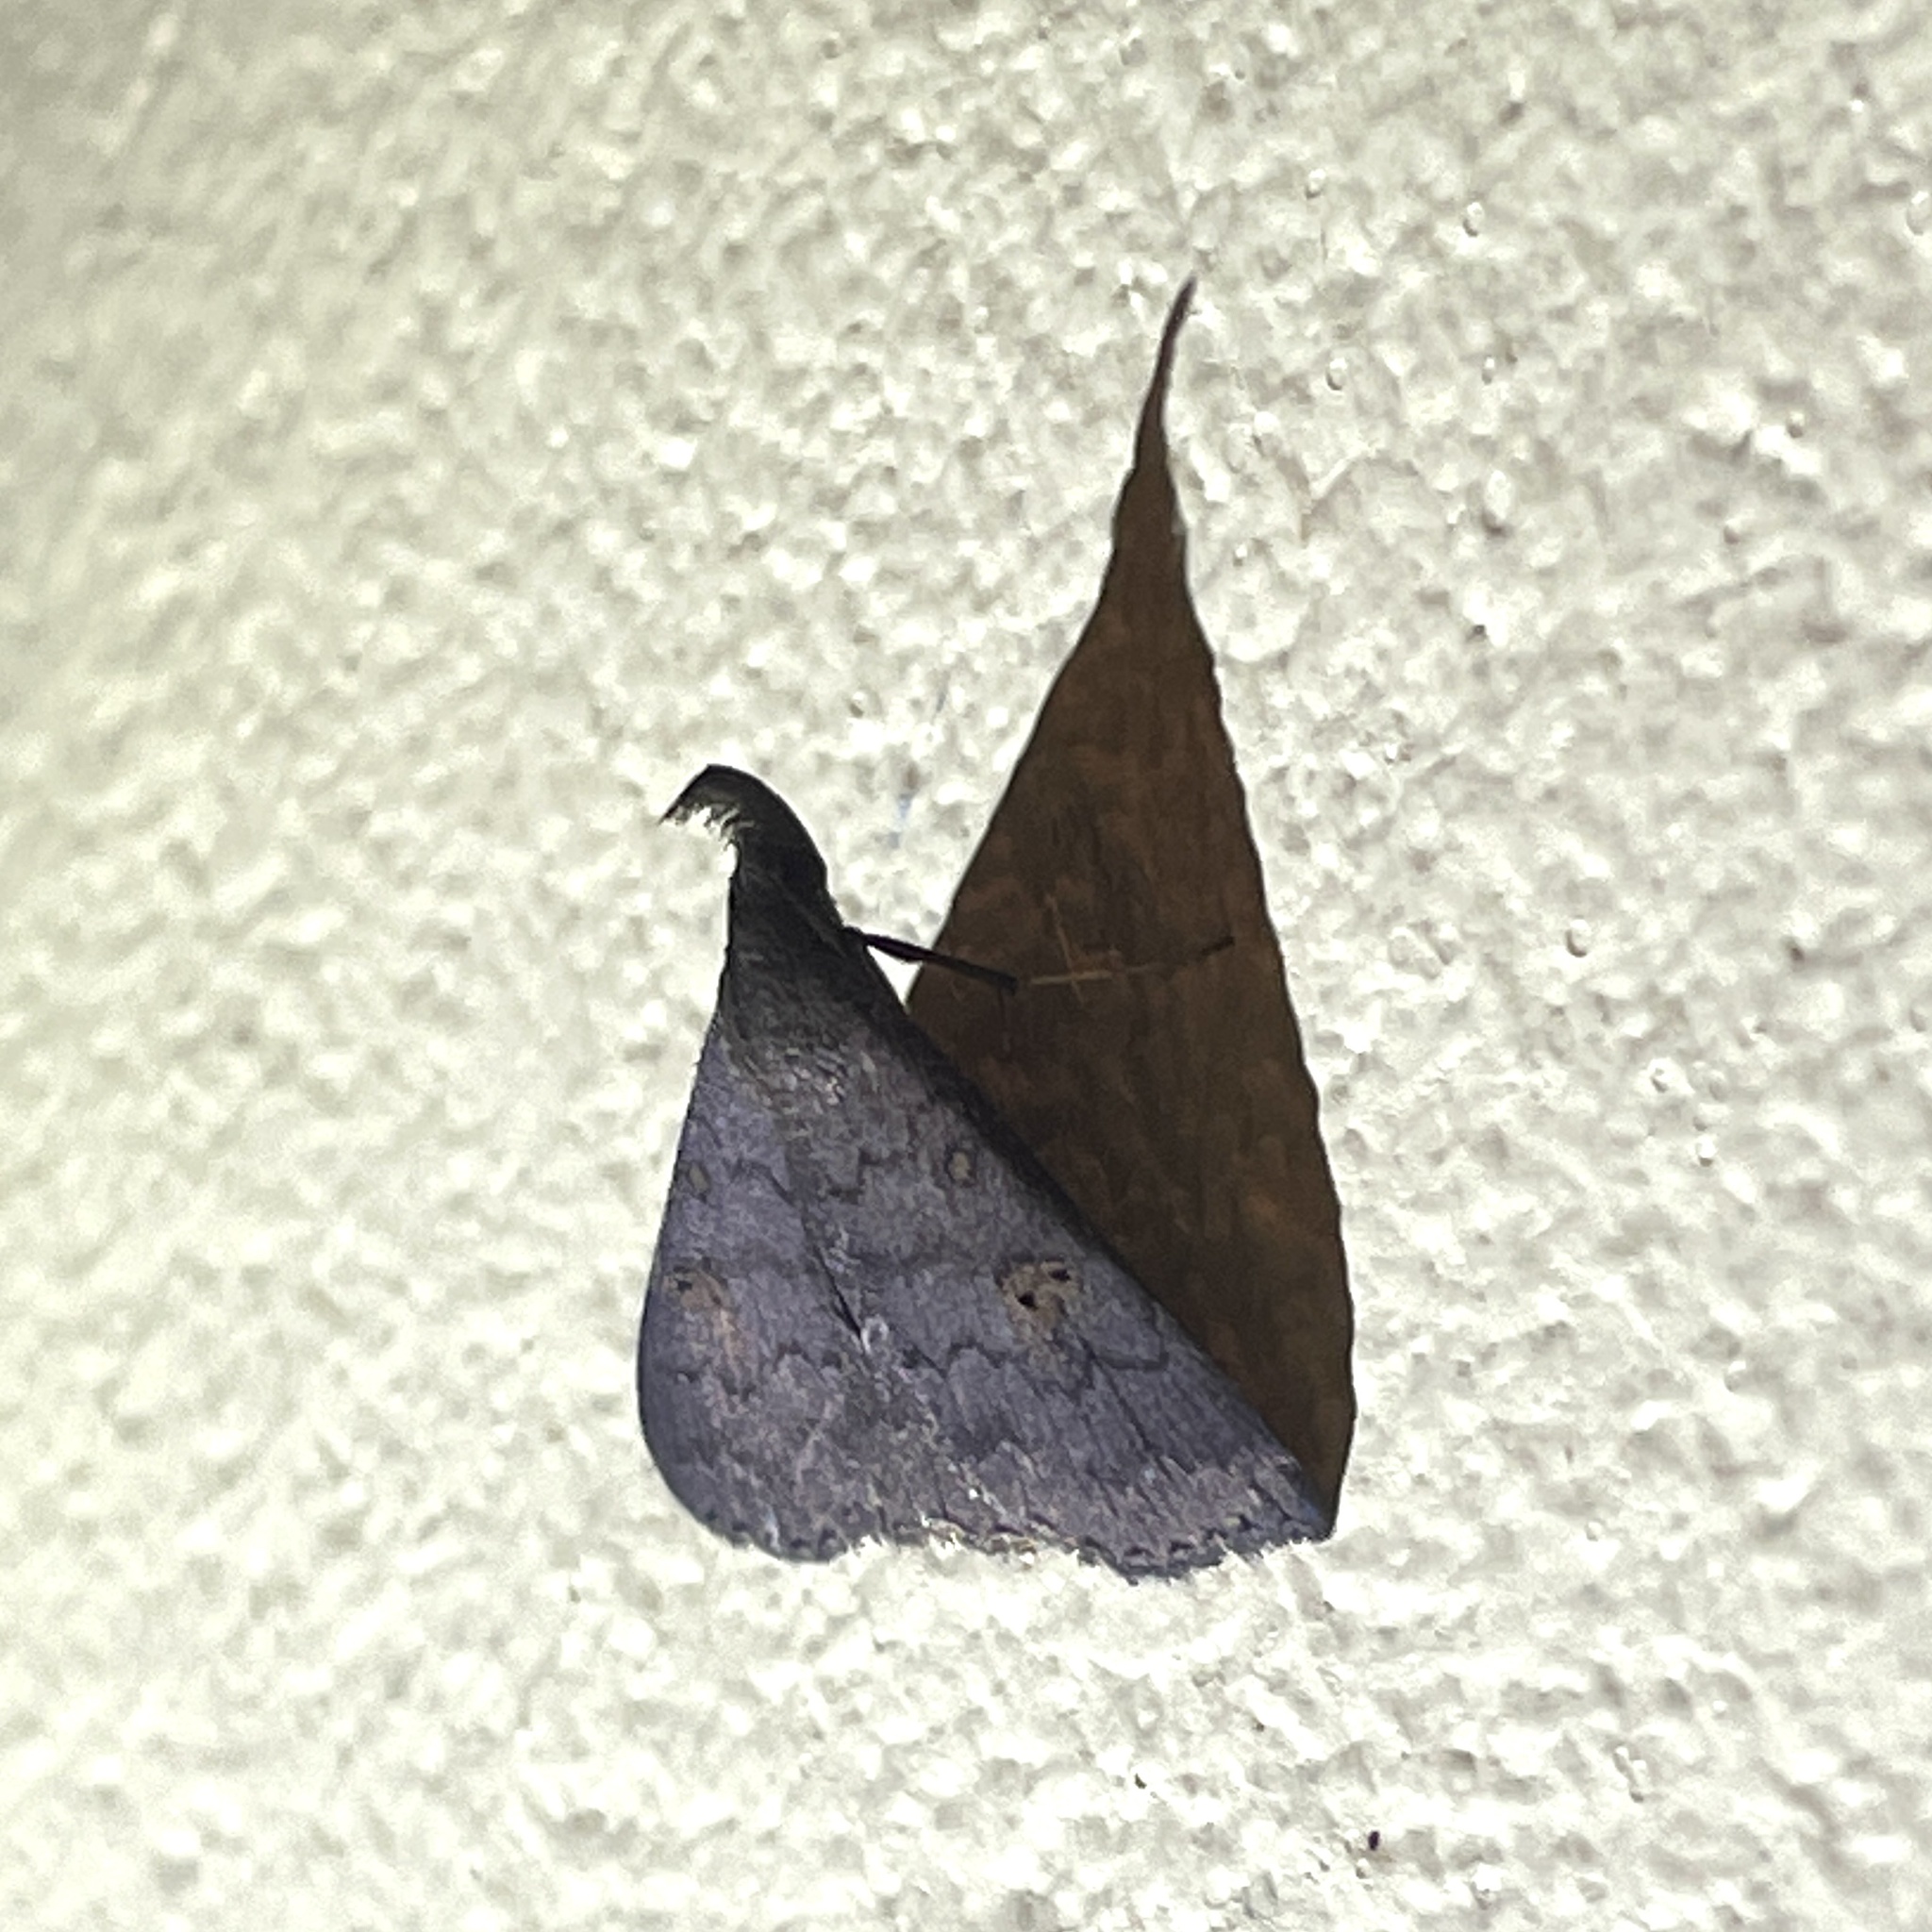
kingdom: Animalia
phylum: Arthropoda
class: Insecta
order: Lepidoptera
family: Erebidae
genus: Physula
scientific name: Physula migralis
